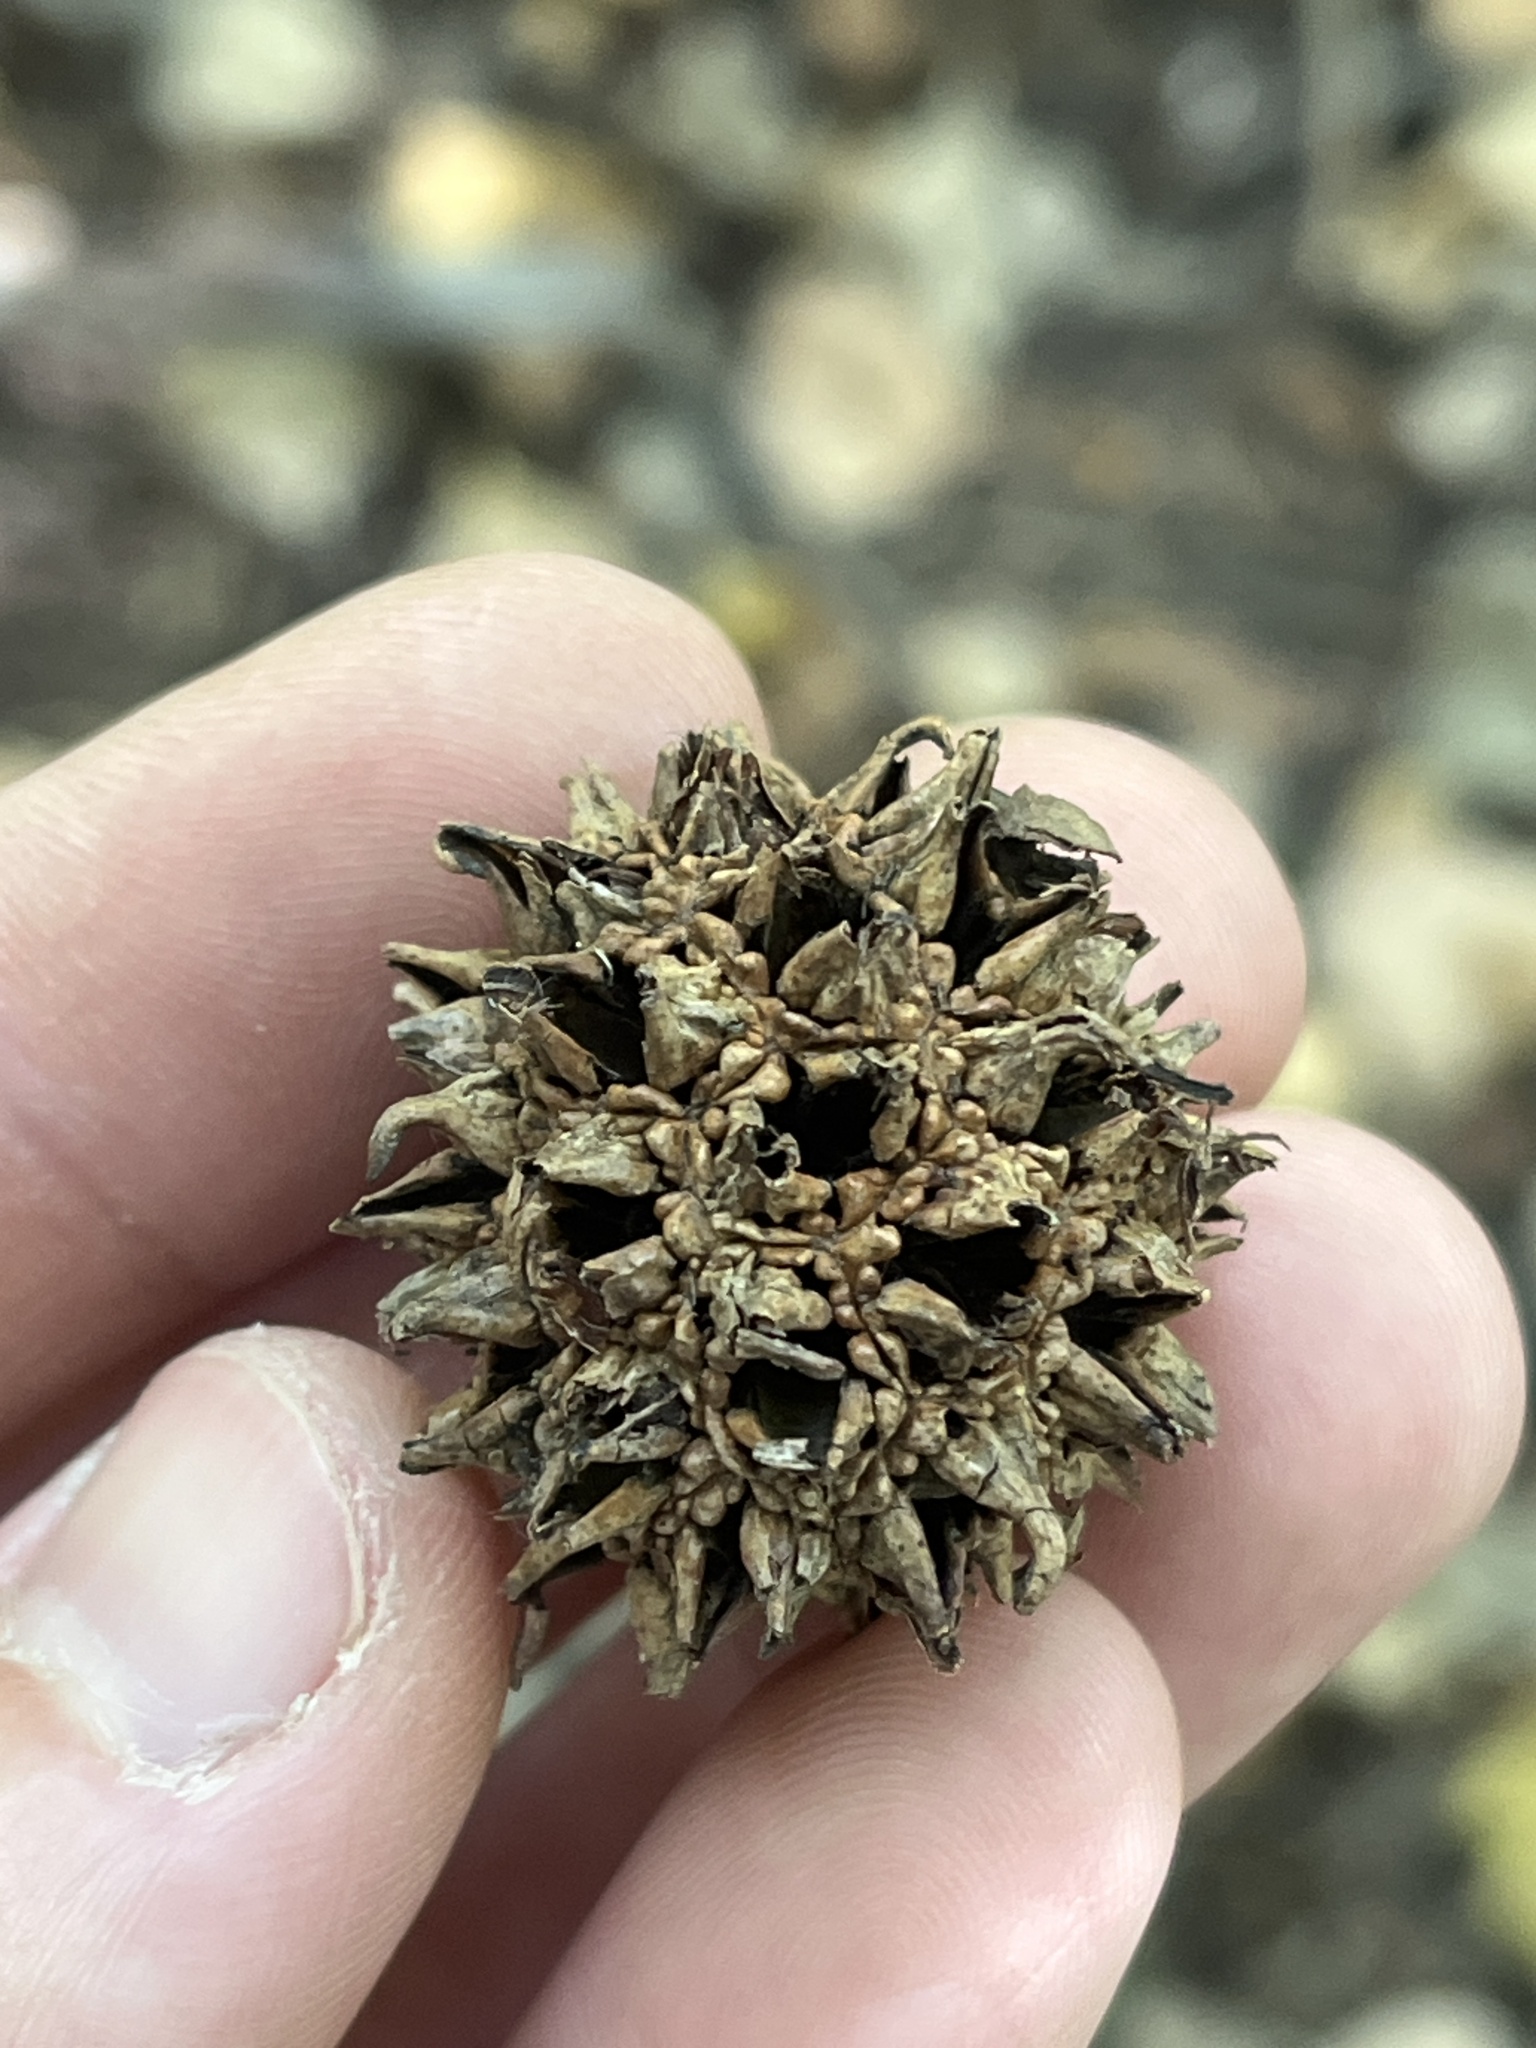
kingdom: Plantae
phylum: Tracheophyta
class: Magnoliopsida
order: Saxifragales
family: Altingiaceae
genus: Liquidambar
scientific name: Liquidambar styraciflua
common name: Sweet gum
